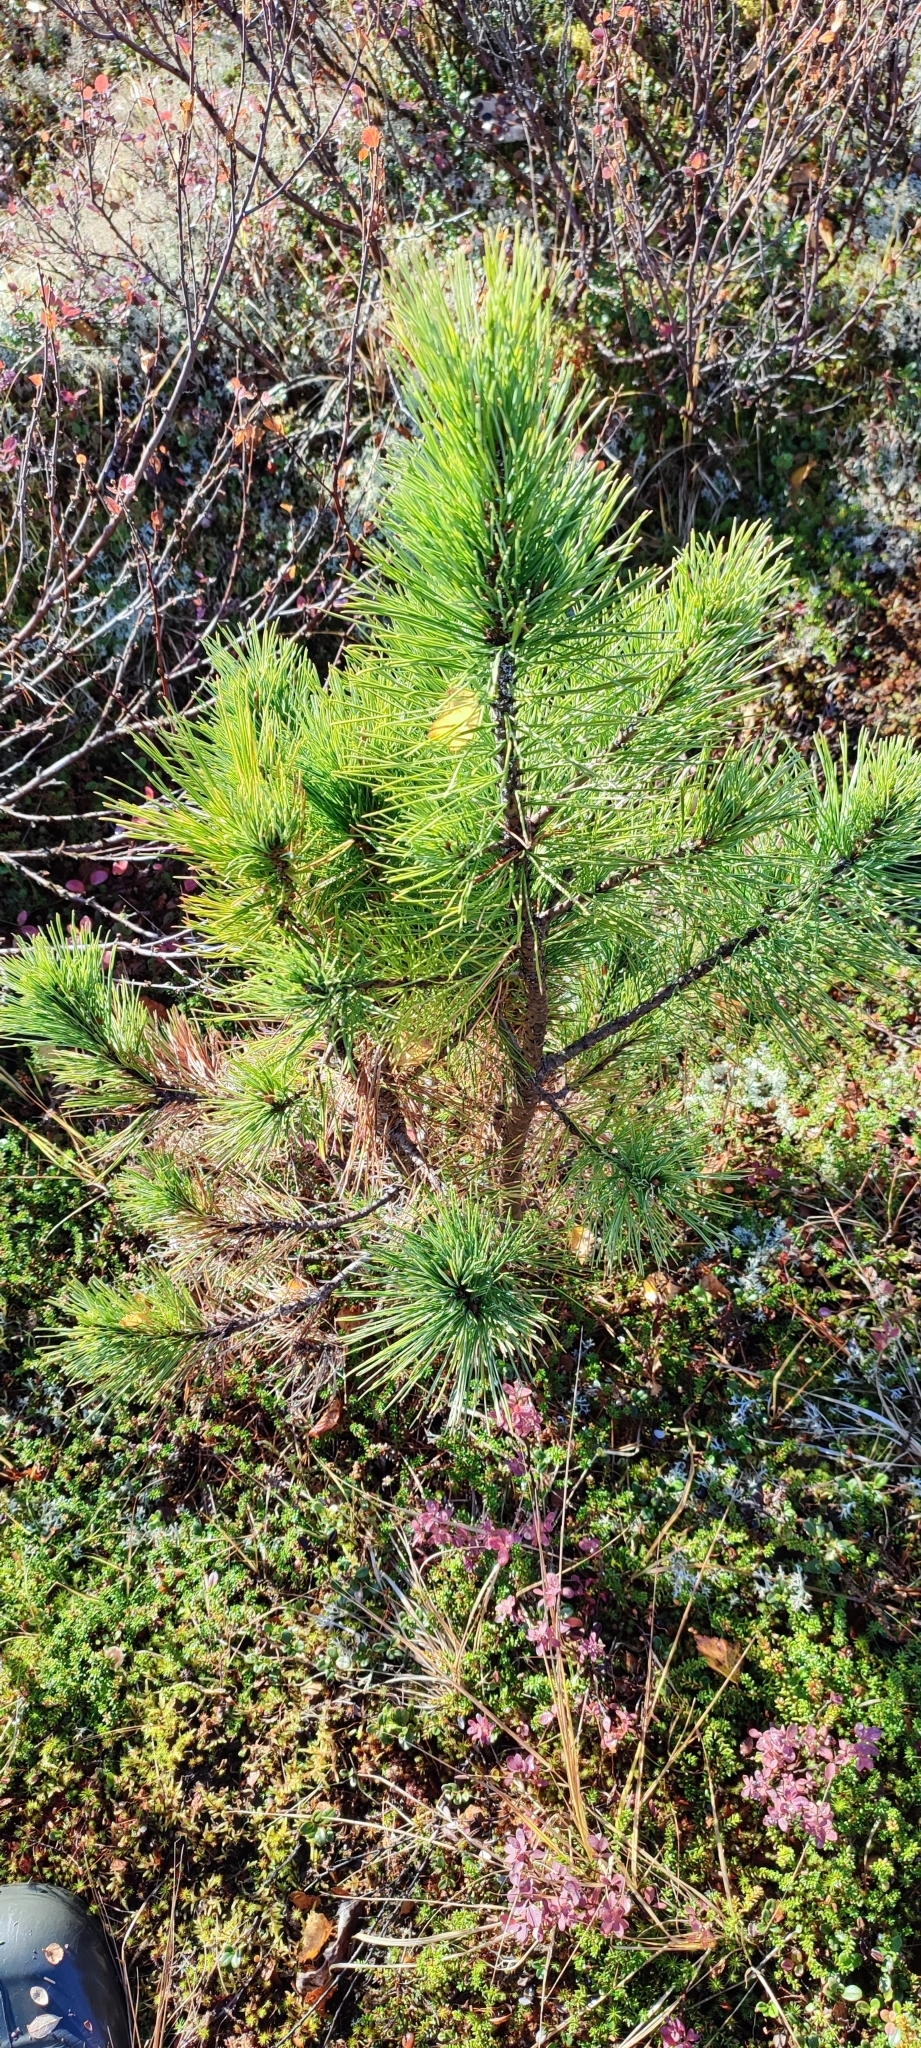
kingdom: Plantae
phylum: Tracheophyta
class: Pinopsida
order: Pinales
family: Pinaceae
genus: Pinus
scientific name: Pinus sylvestris
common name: Scots pine
